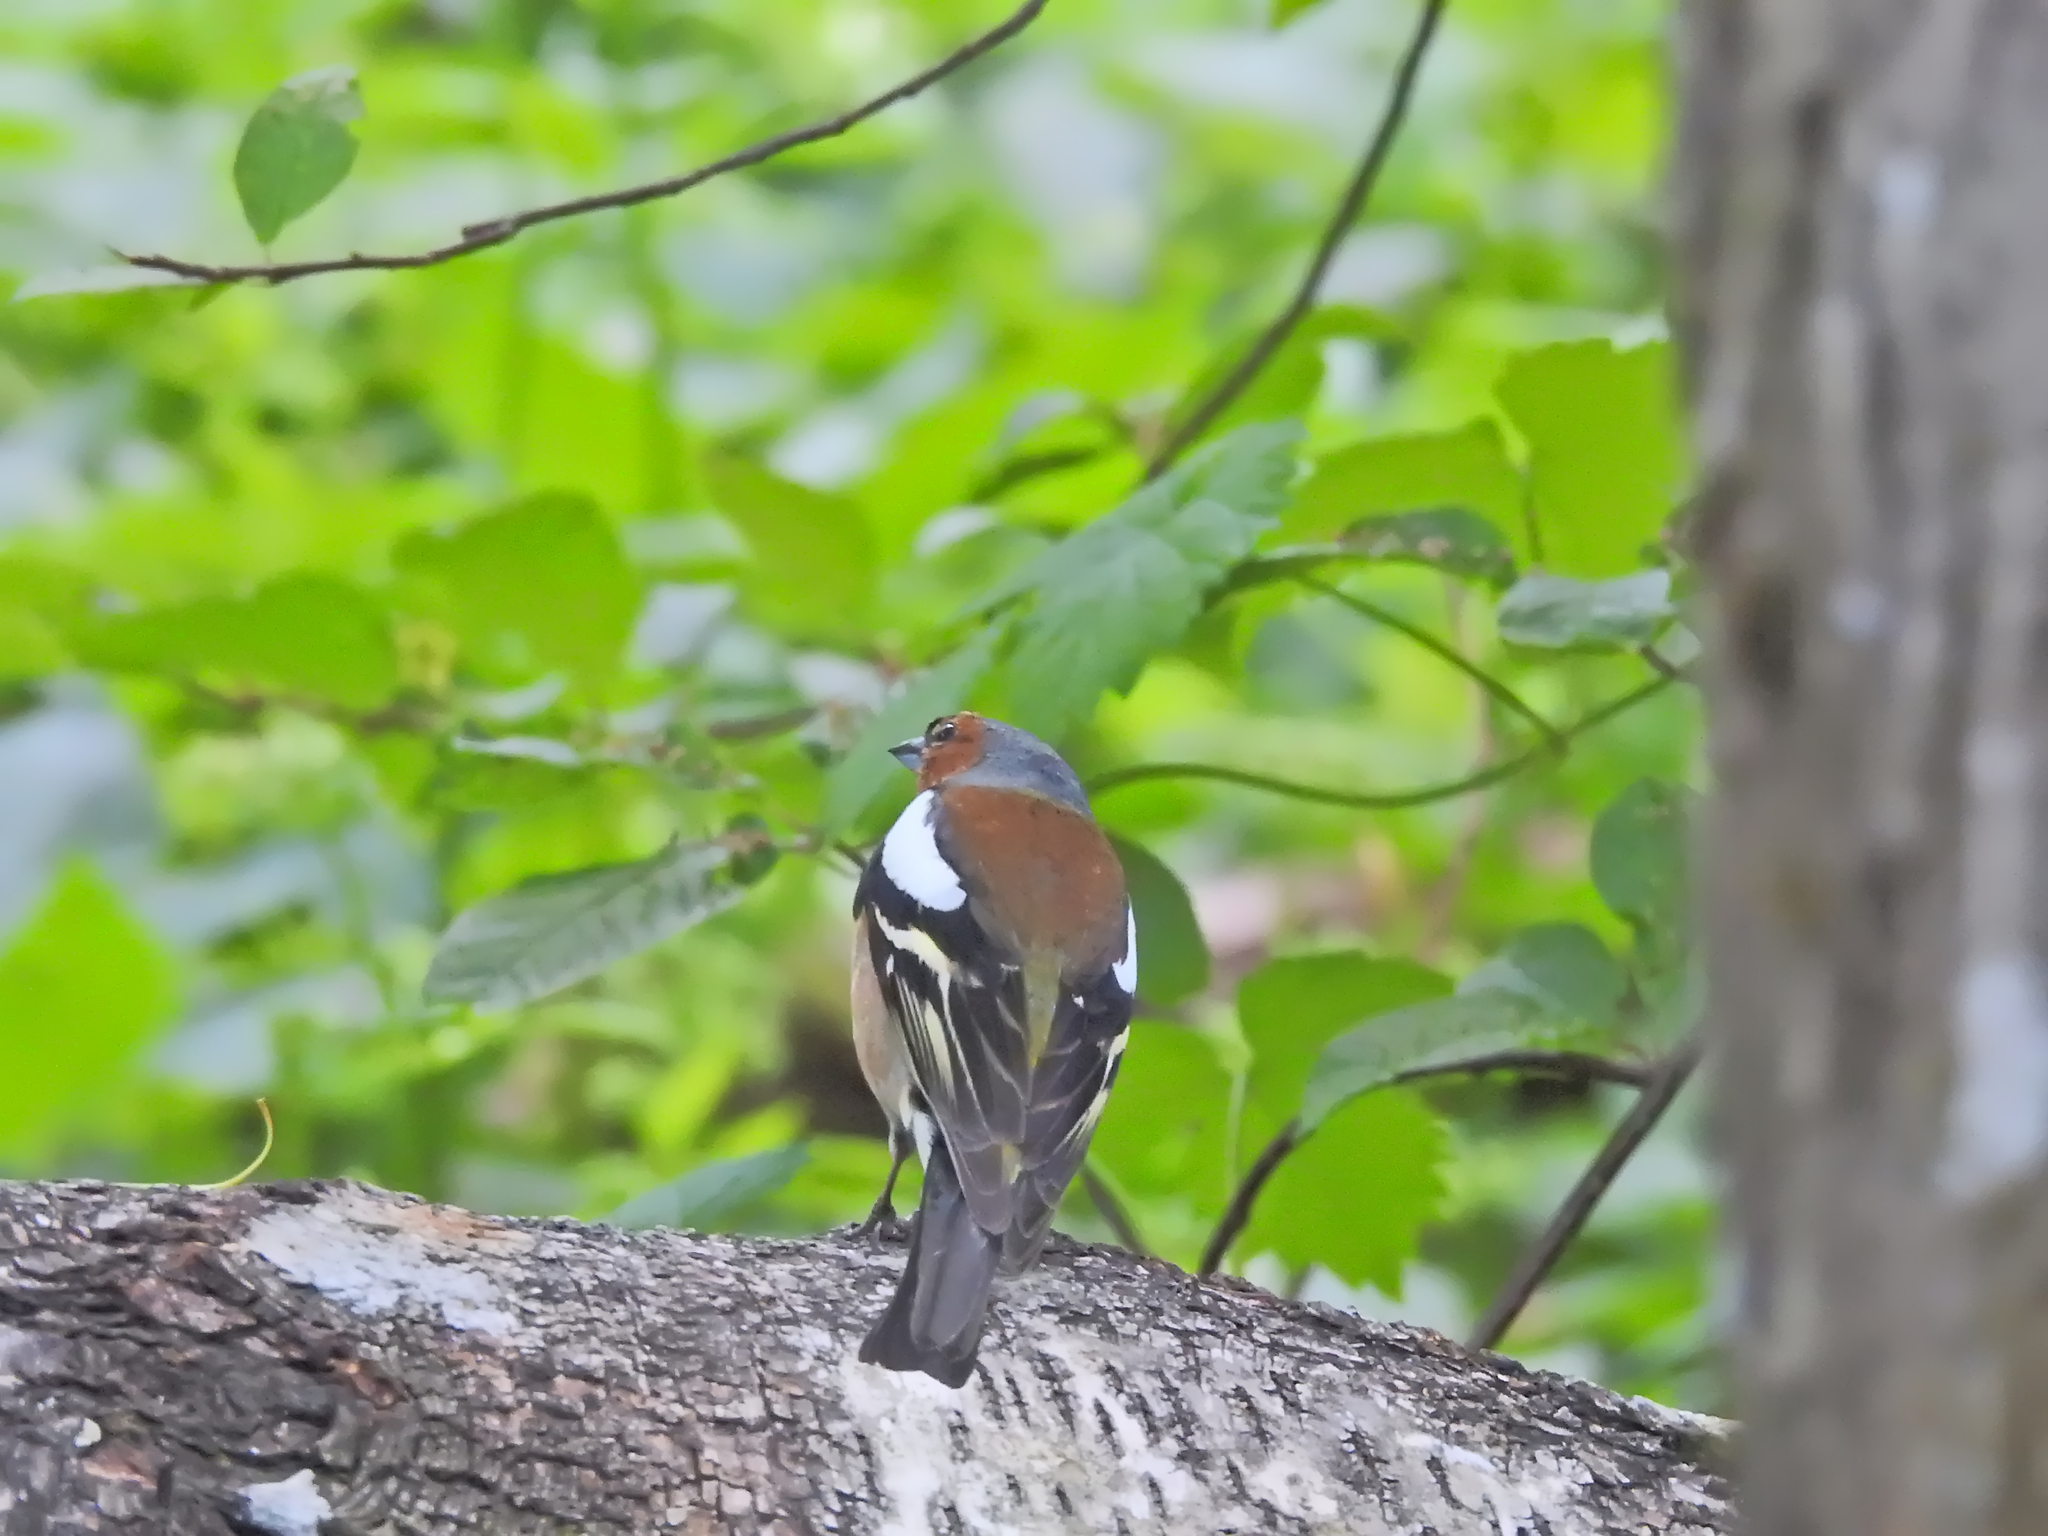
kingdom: Animalia
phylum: Chordata
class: Aves
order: Passeriformes
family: Fringillidae
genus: Fringilla
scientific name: Fringilla coelebs
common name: Common chaffinch
